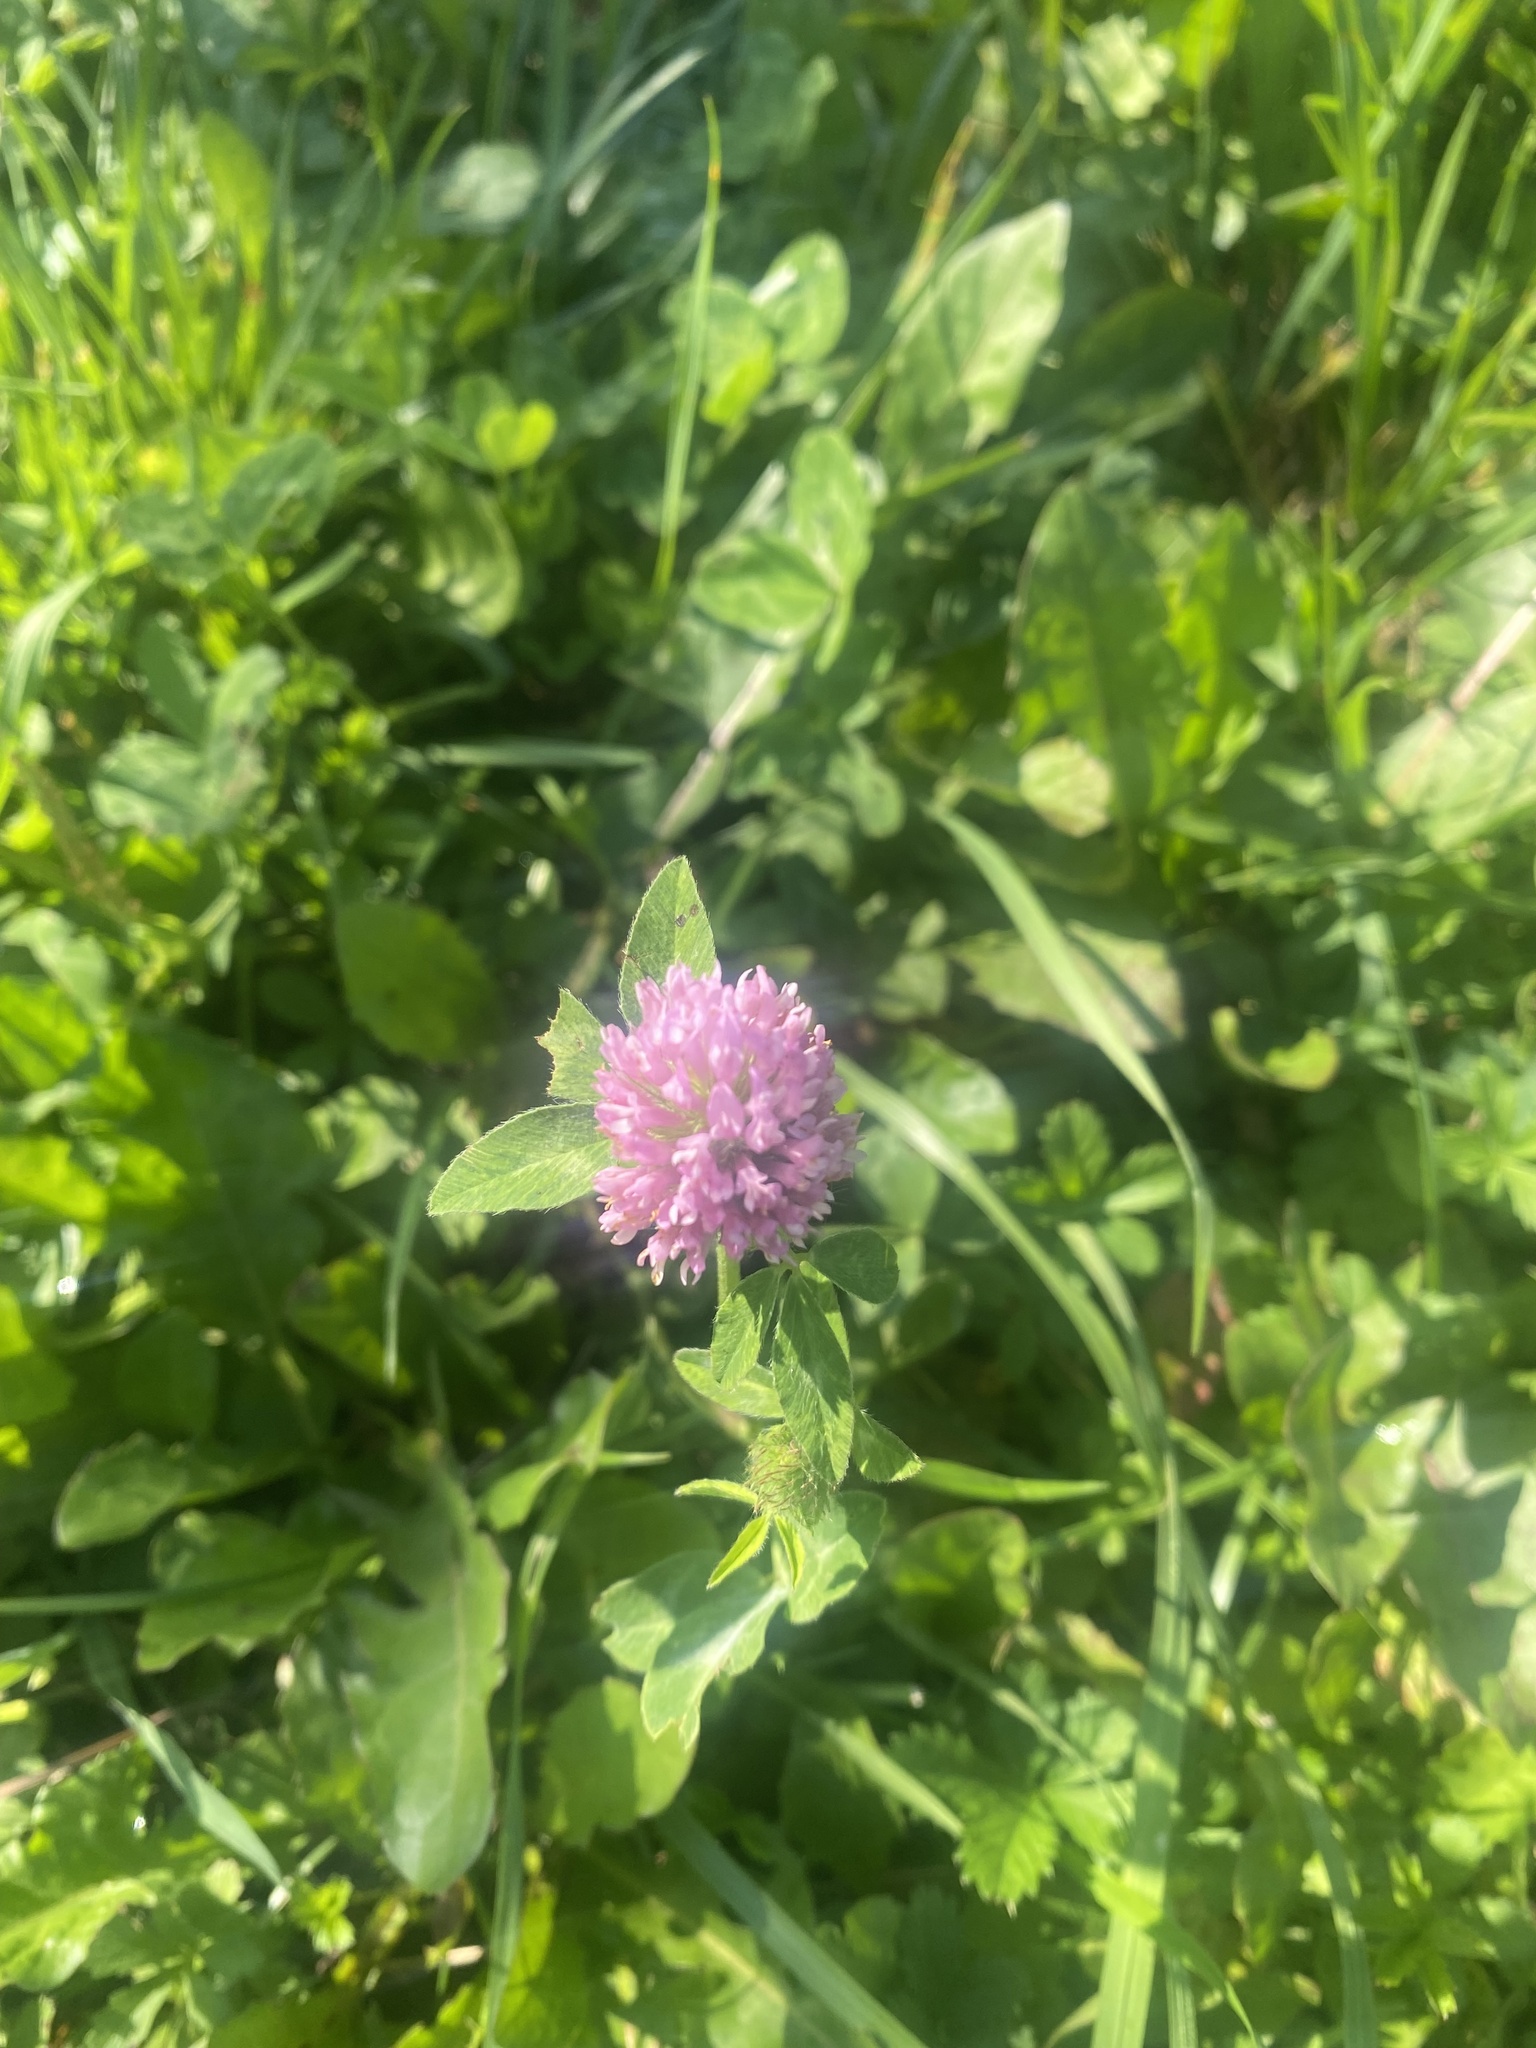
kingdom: Plantae
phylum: Tracheophyta
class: Magnoliopsida
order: Fabales
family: Fabaceae
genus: Trifolium
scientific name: Trifolium pratense
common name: Red clover
